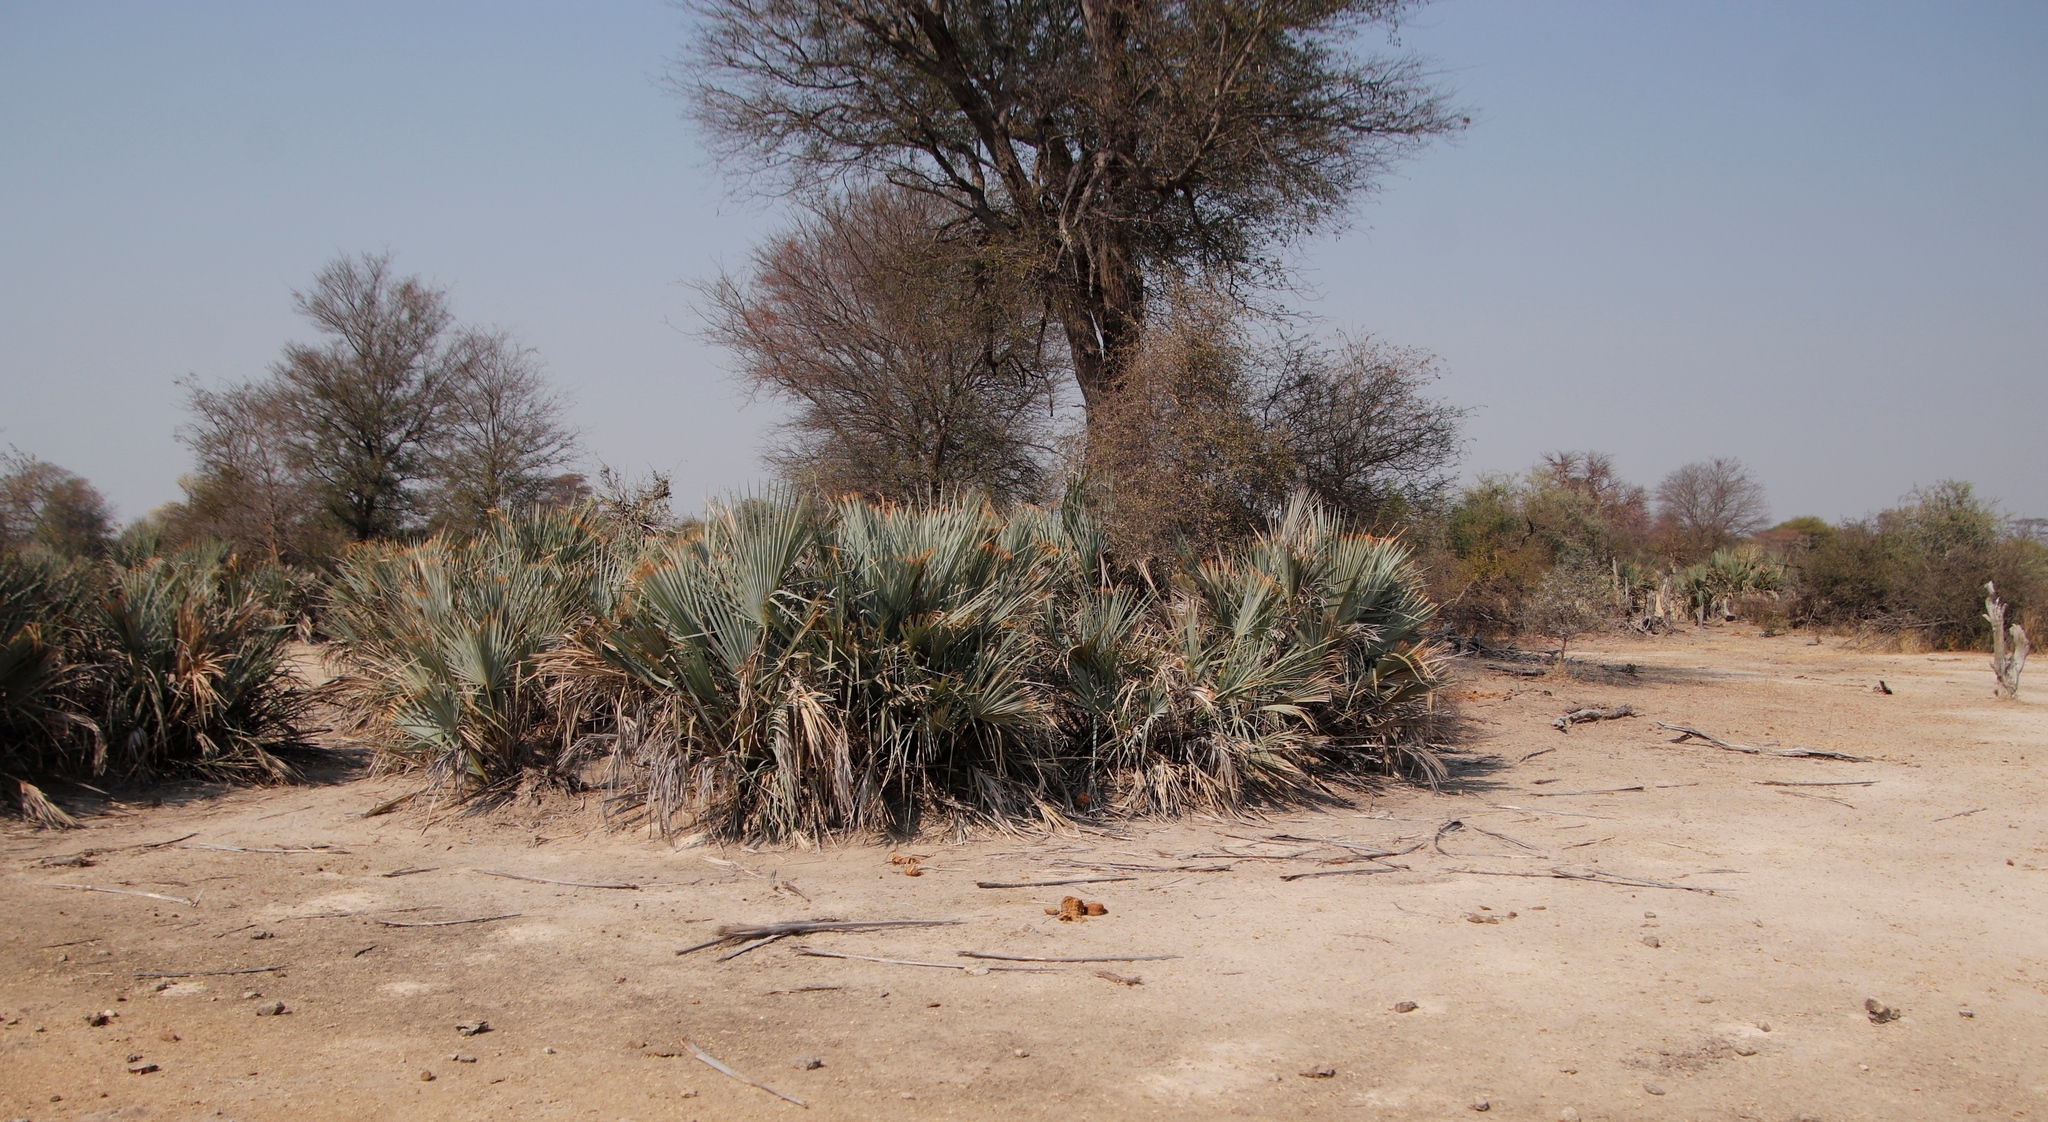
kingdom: Plantae
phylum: Tracheophyta
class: Liliopsida
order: Arecales
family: Arecaceae
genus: Hyphaene
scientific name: Hyphaene petersiana
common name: African ivory nut palm
